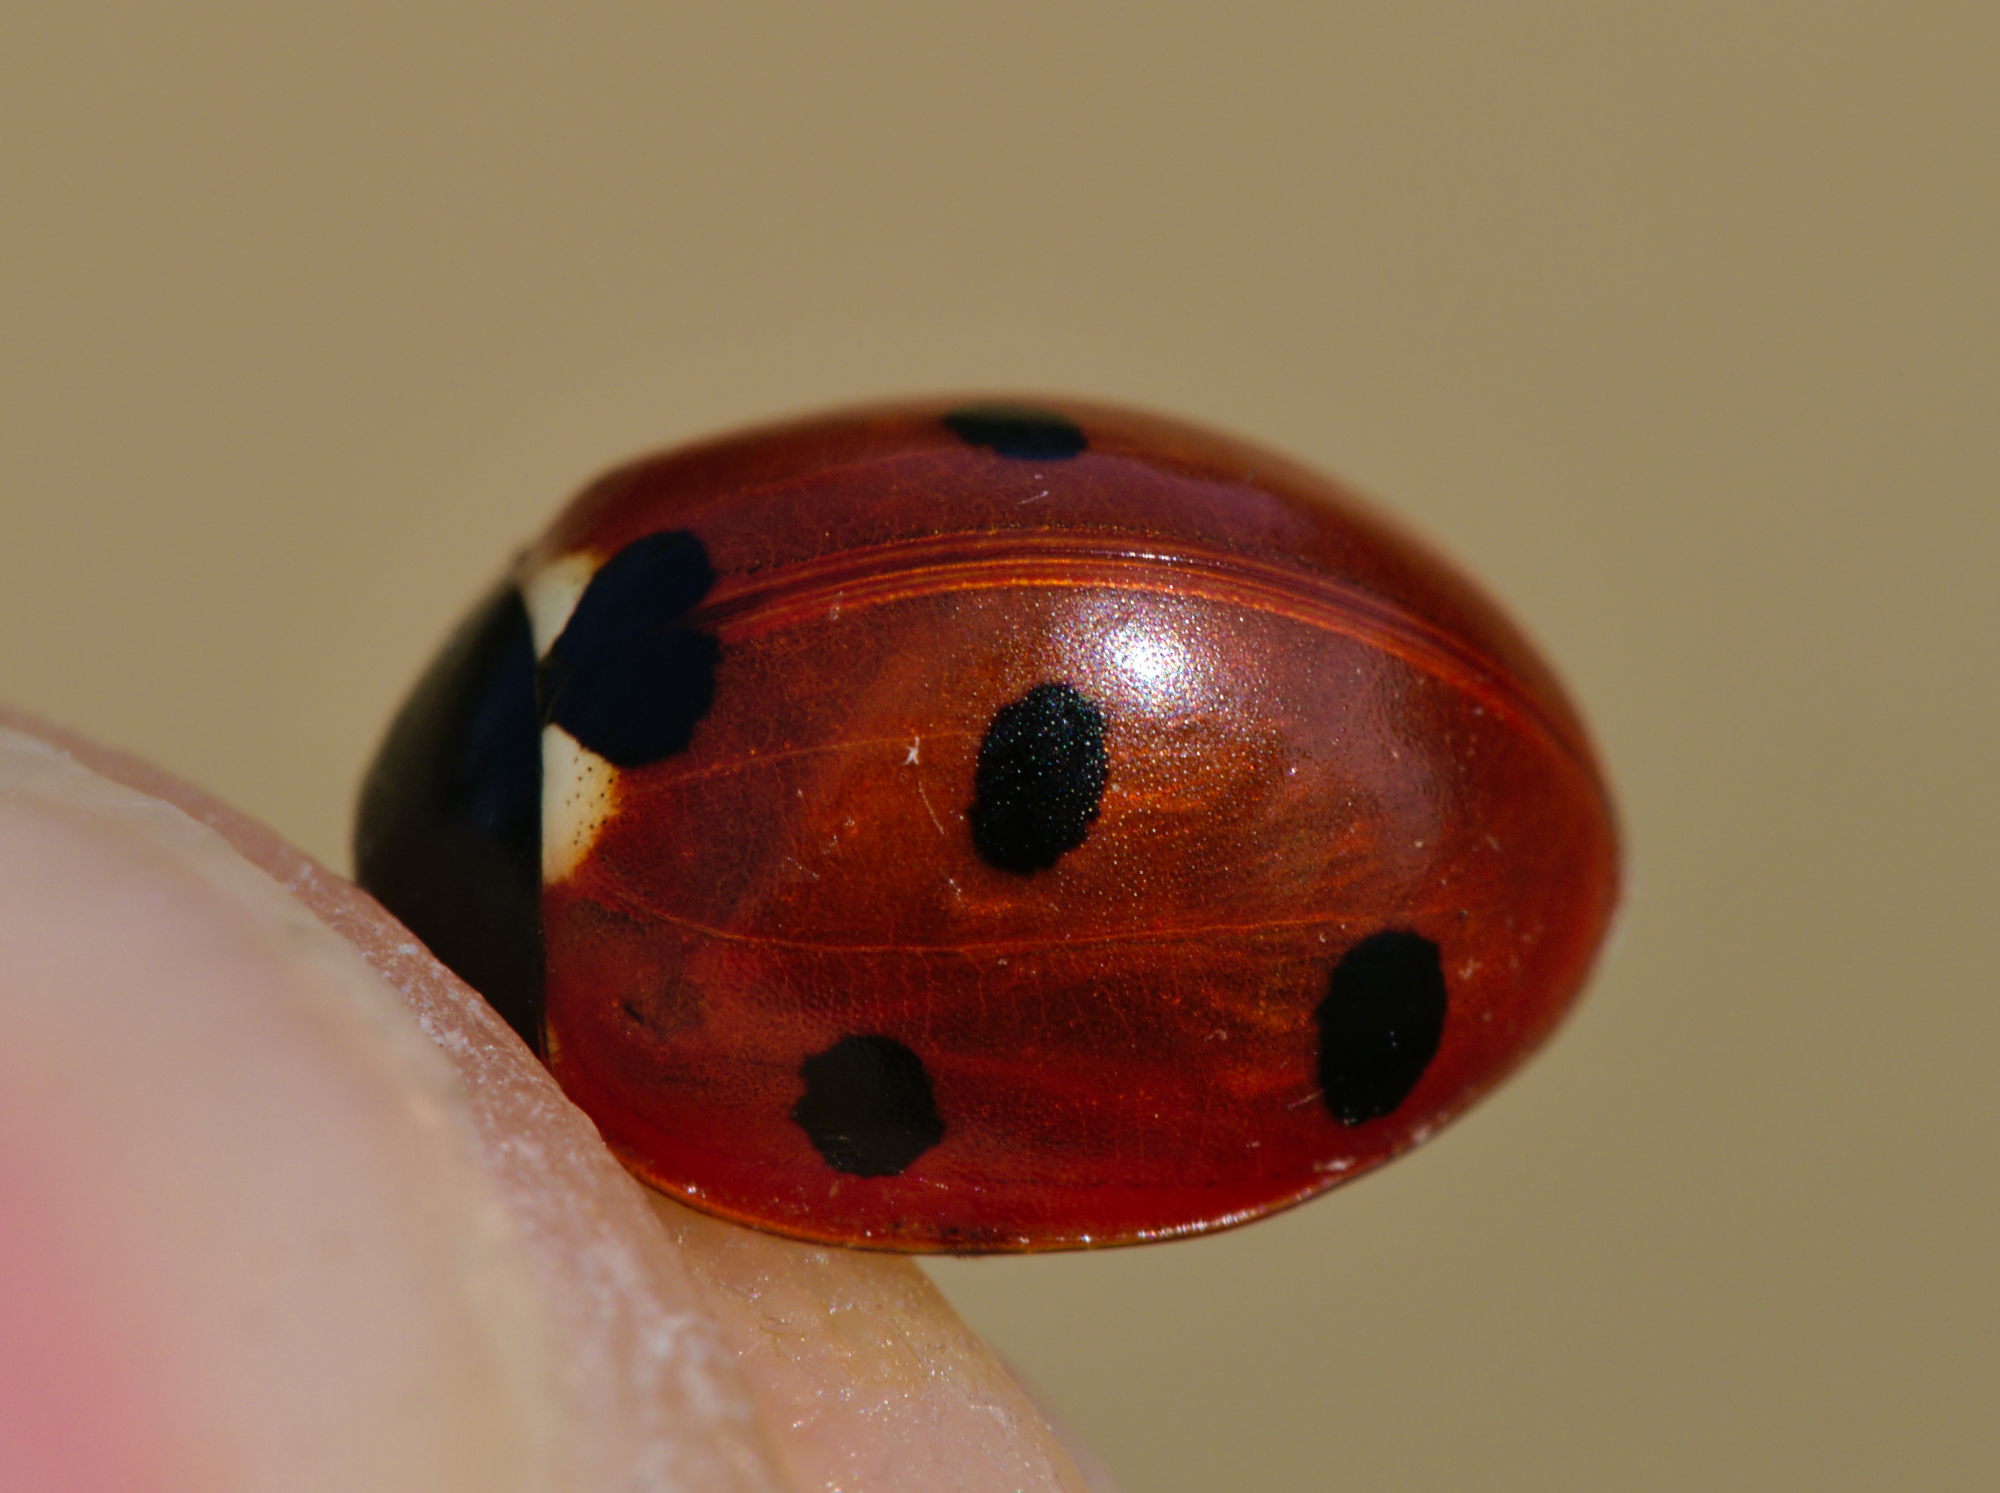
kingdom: Animalia
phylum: Arthropoda
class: Insecta
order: Coleoptera
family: Coccinellidae
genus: Coccinella
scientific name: Coccinella septempunctata
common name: Sevenspotted lady beetle
